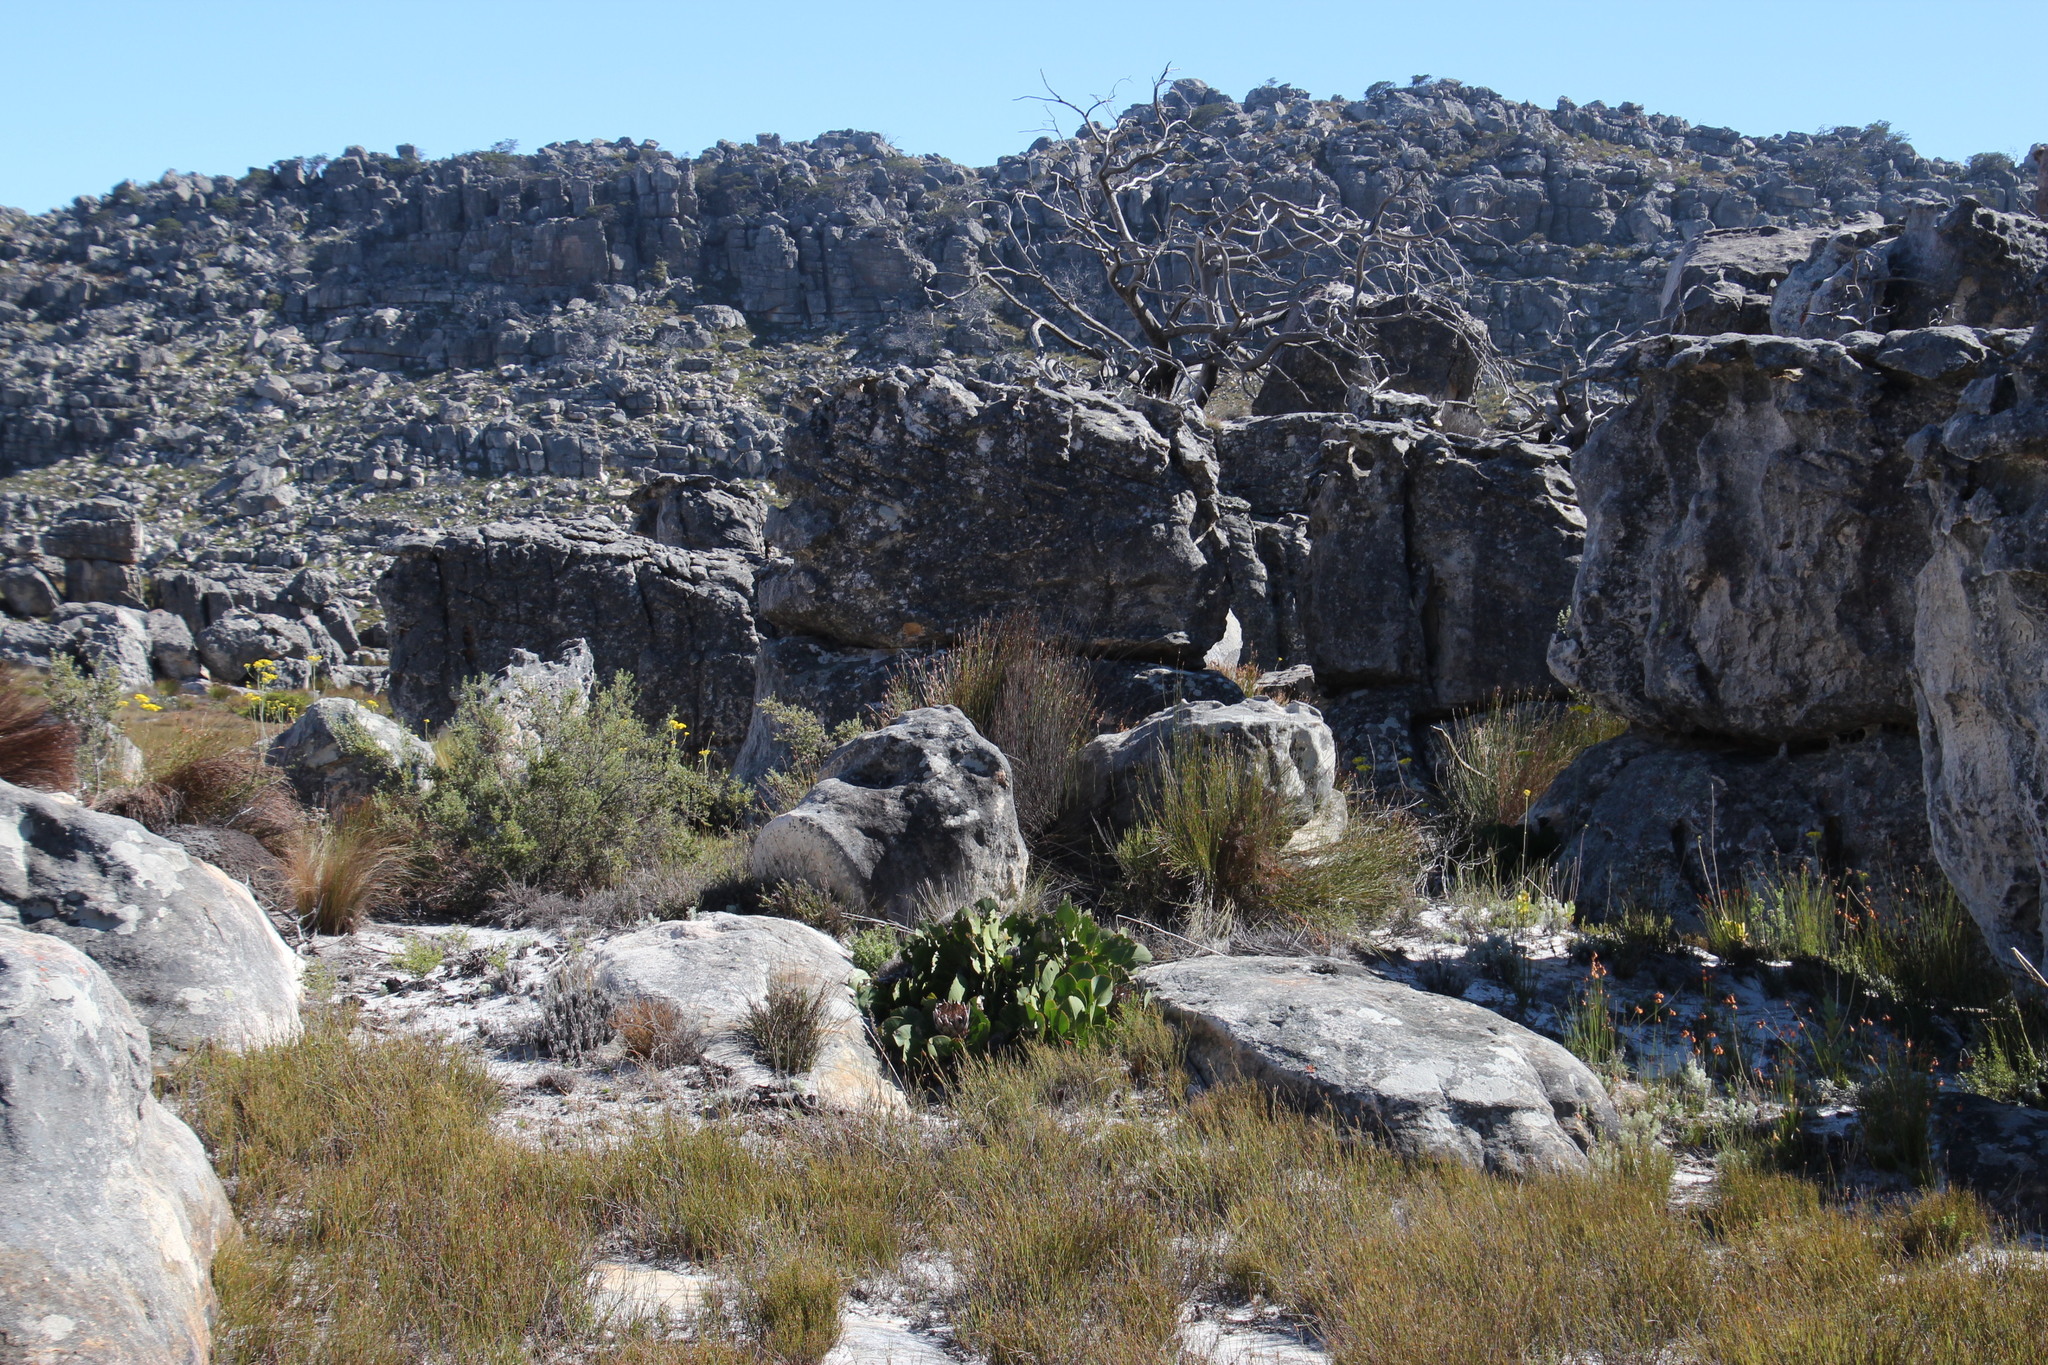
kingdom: Plantae
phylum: Tracheophyta
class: Magnoliopsida
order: Proteales
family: Proteaceae
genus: Protea
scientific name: Protea cynaroides
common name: King protea
